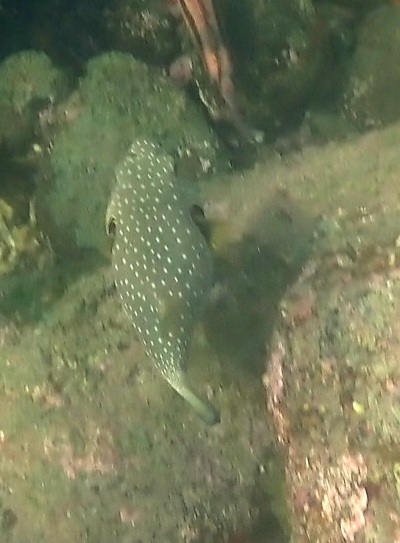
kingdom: Animalia
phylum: Chordata
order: Tetraodontiformes
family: Tetraodontidae
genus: Arothron
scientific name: Arothron hispidus
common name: Stripebelly puffer
